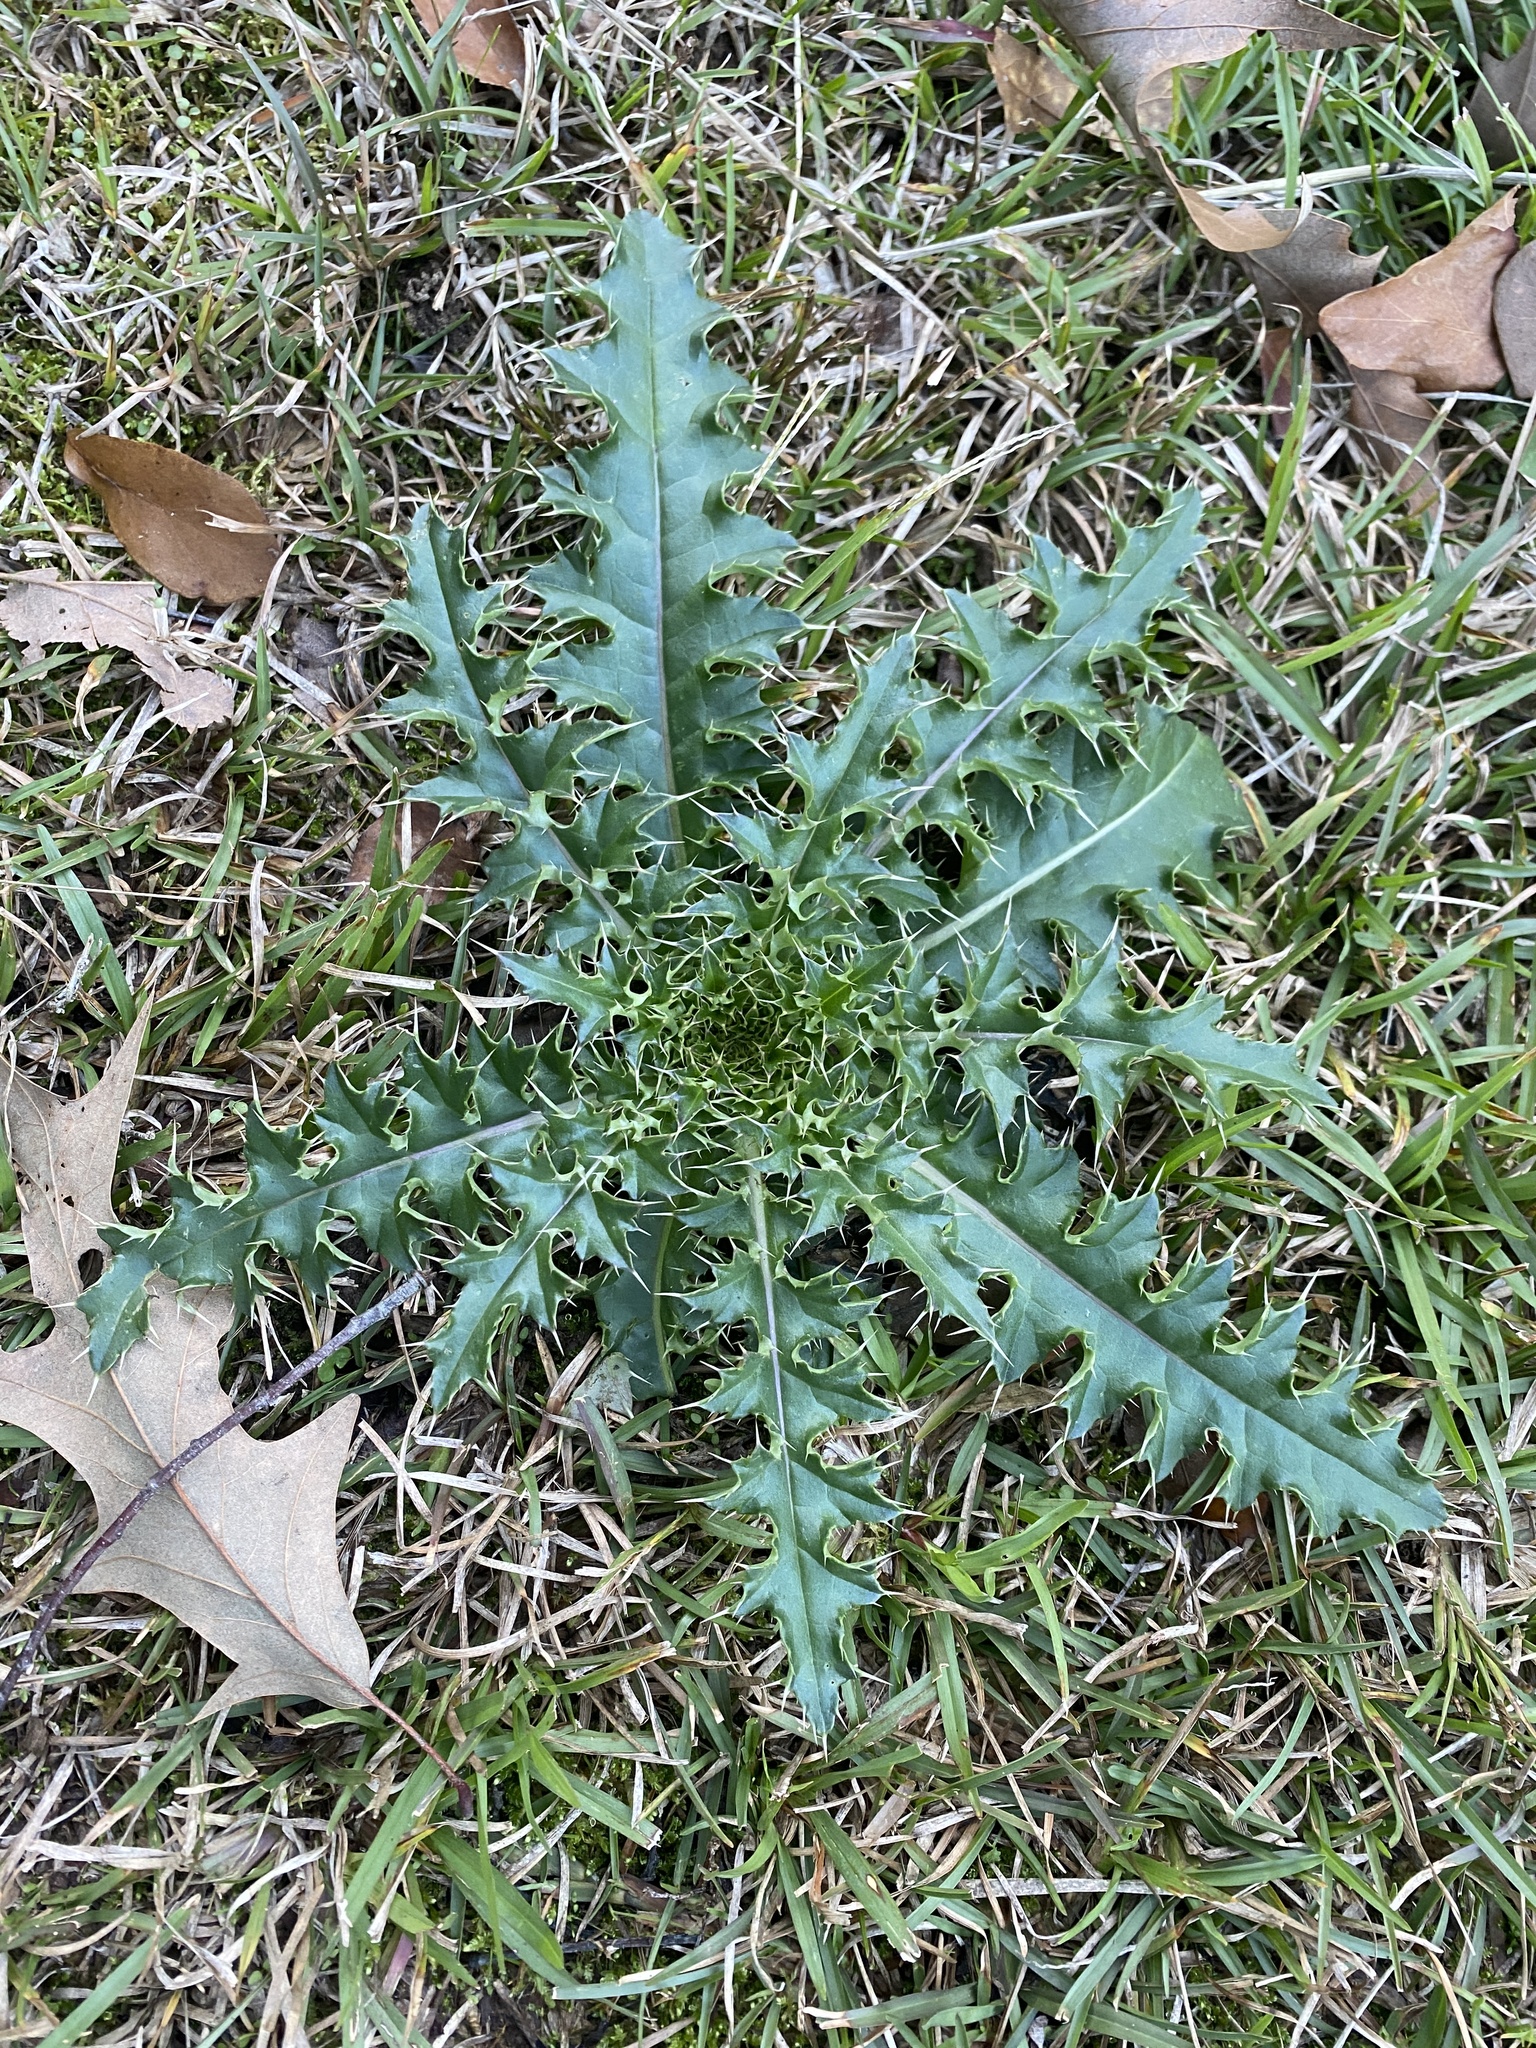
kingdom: Plantae
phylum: Tracheophyta
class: Magnoliopsida
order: Asterales
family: Asteraceae
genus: Cirsium
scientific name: Cirsium horridulum
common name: Bristly thistle
